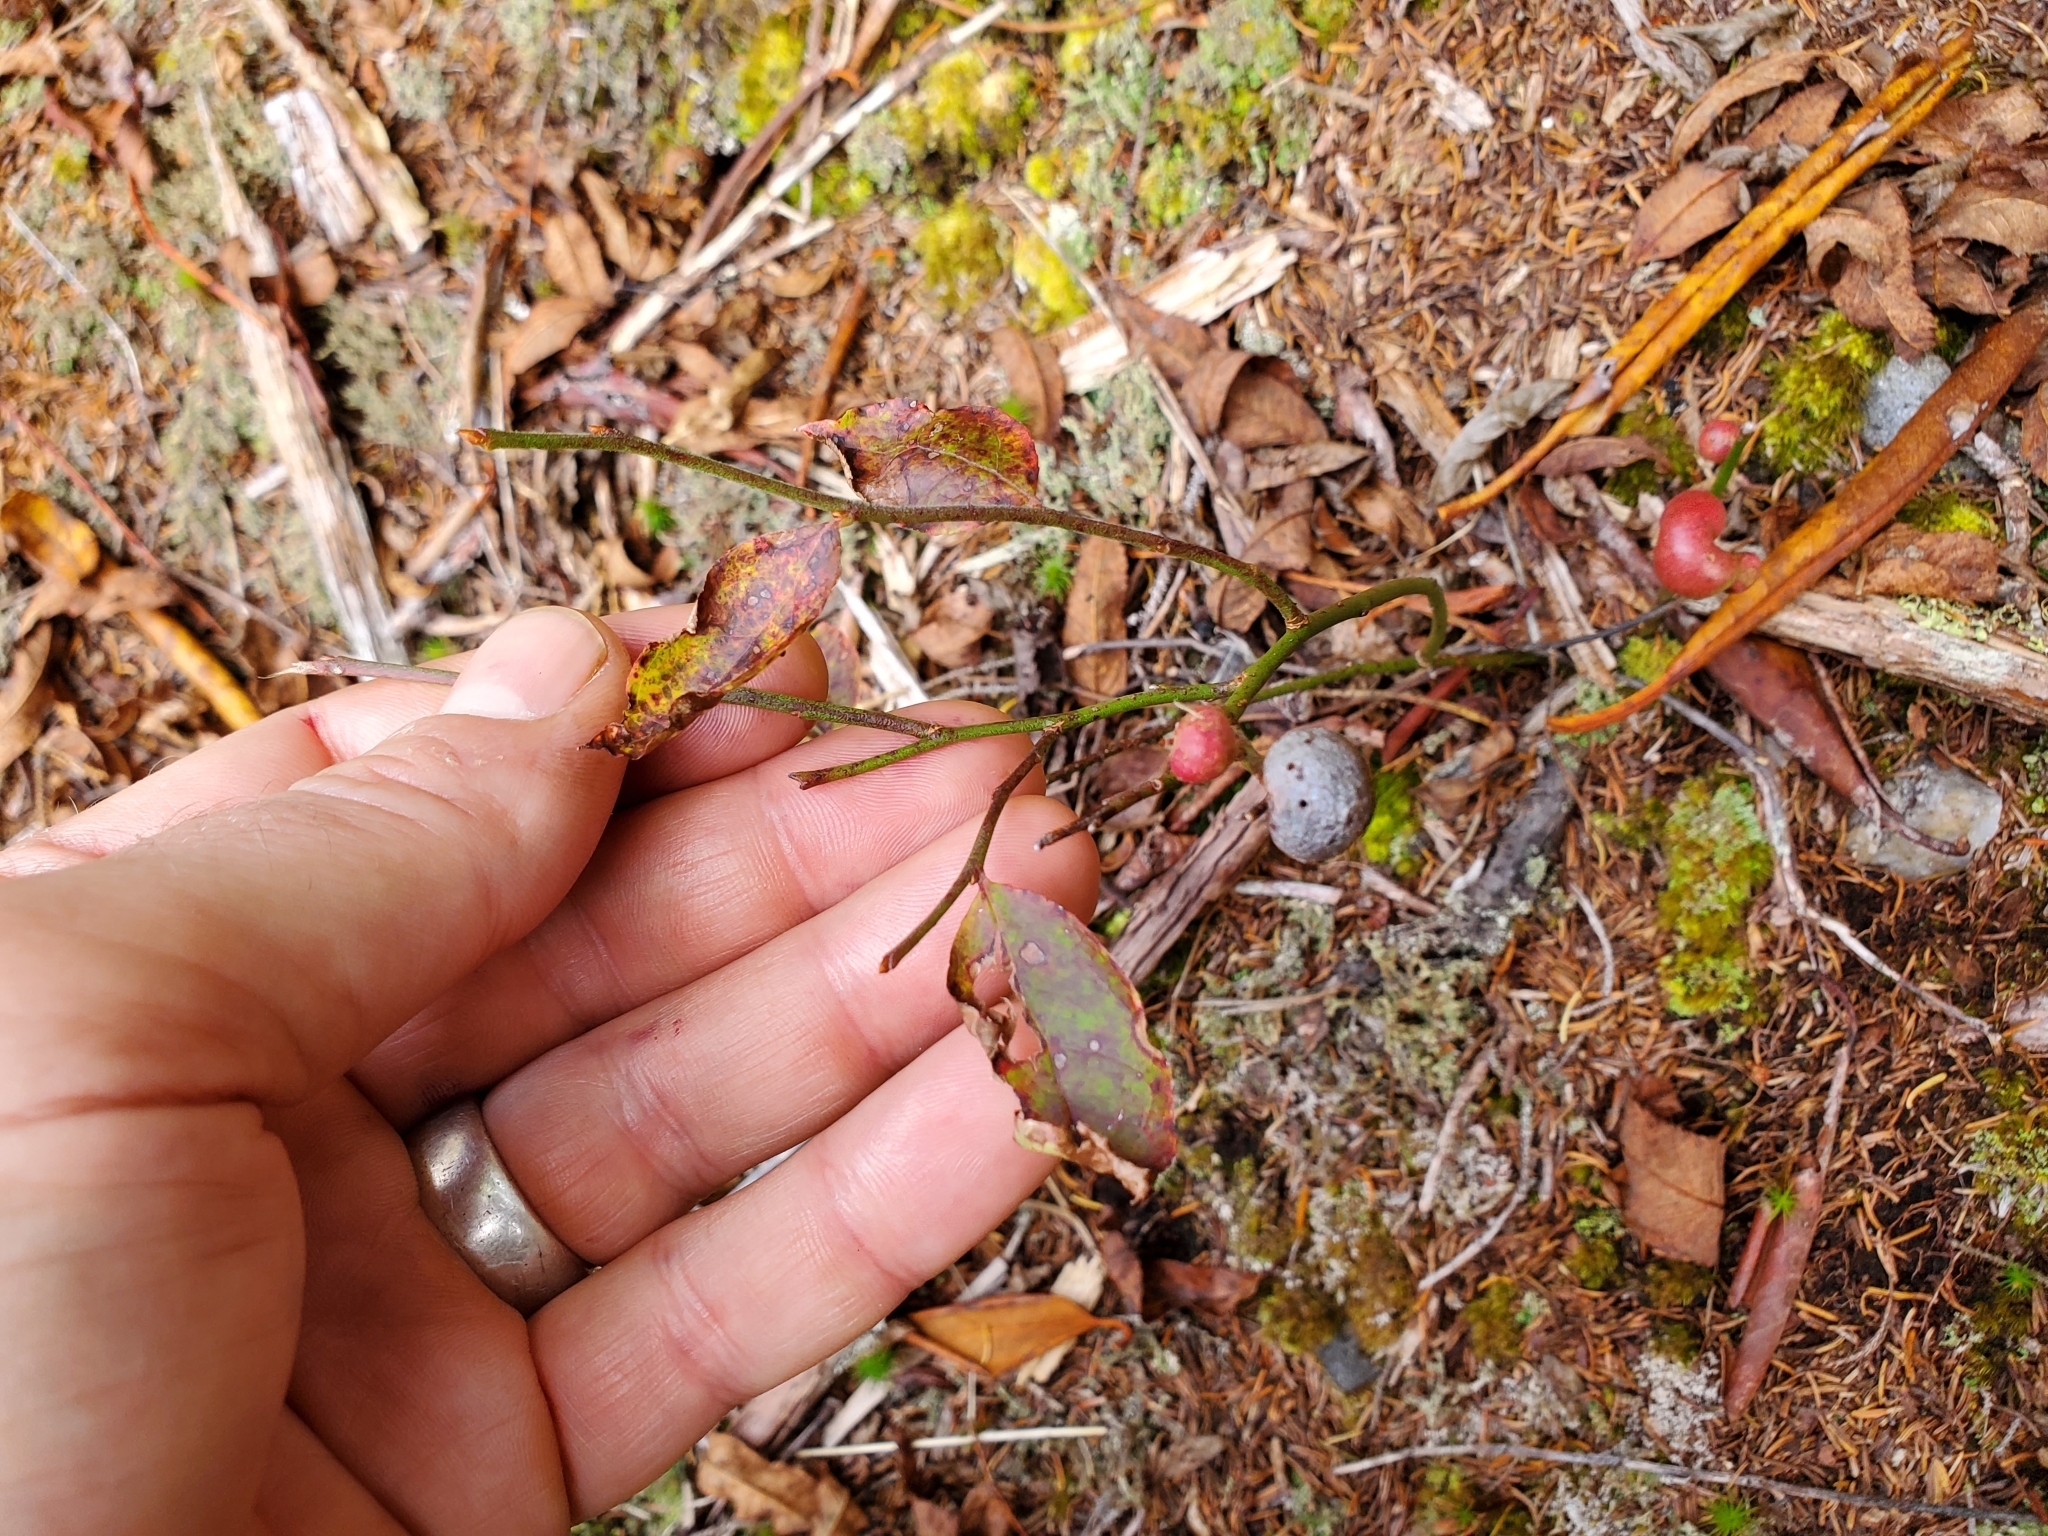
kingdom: Animalia
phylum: Arthropoda
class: Insecta
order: Hymenoptera
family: Pteromalidae
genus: Hemadas
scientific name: Hemadas nubilipennis
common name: Blueberry stem gall wasp
